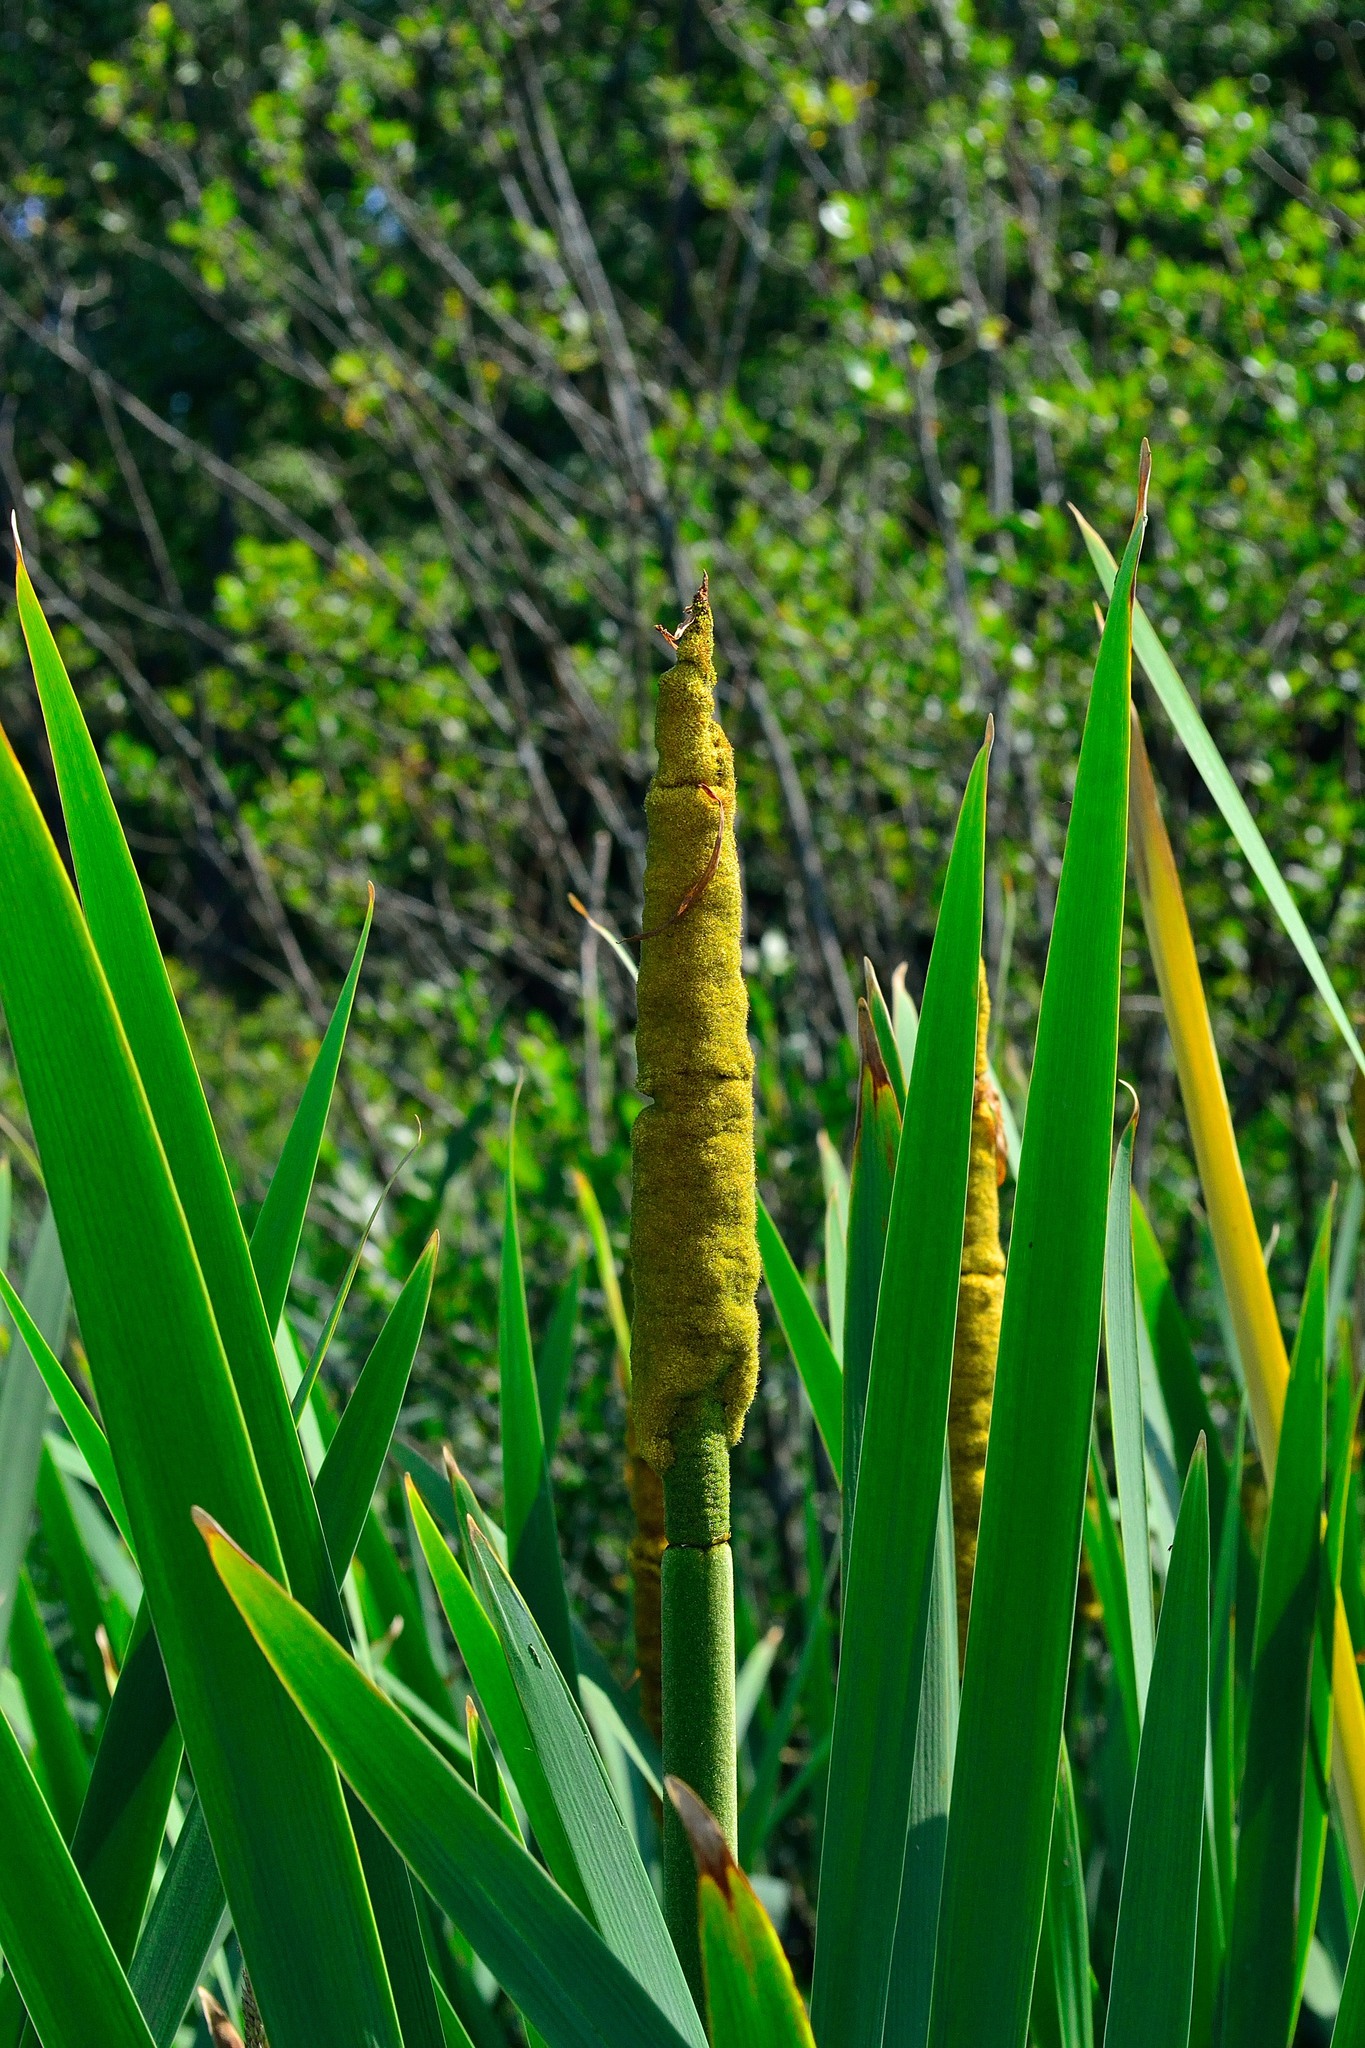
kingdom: Plantae
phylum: Tracheophyta
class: Liliopsida
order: Poales
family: Typhaceae
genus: Typha
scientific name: Typha latifolia
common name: Broadleaf cattail
